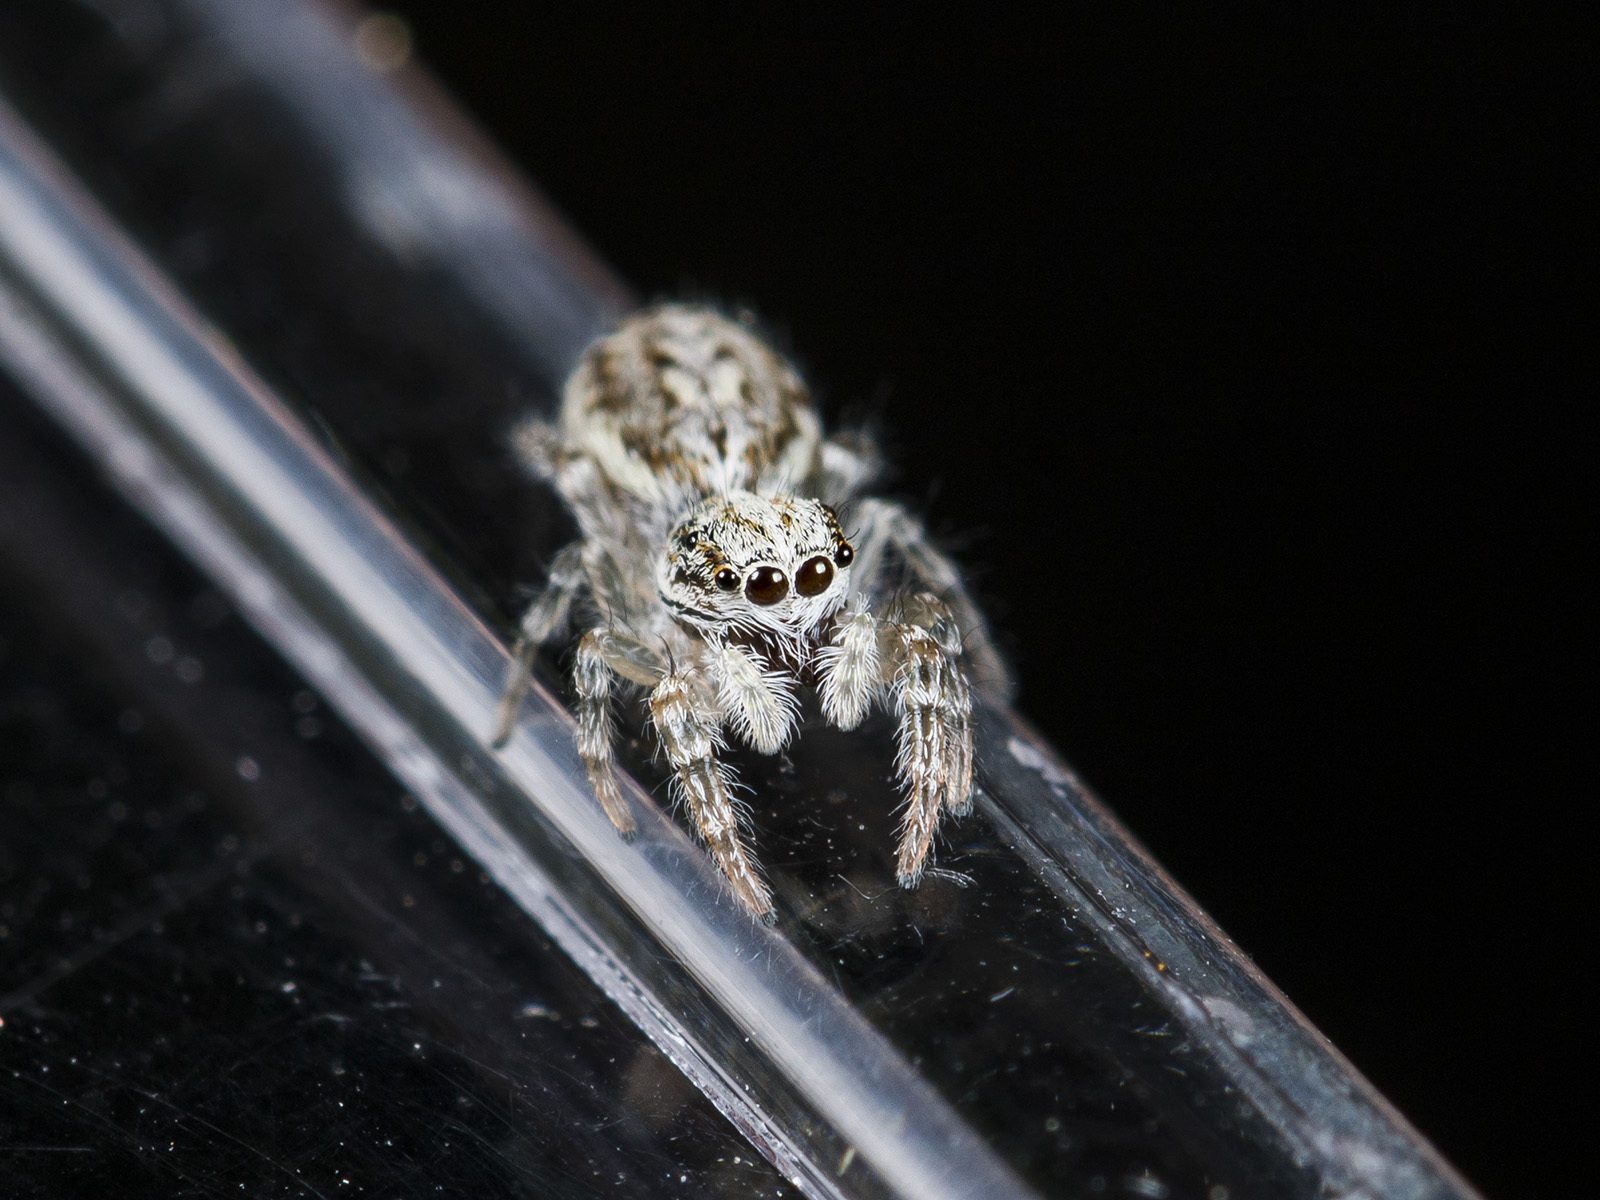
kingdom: Animalia
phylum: Arthropoda
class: Arachnida
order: Araneae
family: Salticidae
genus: Pseudicius
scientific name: Pseudicius encarpatus
